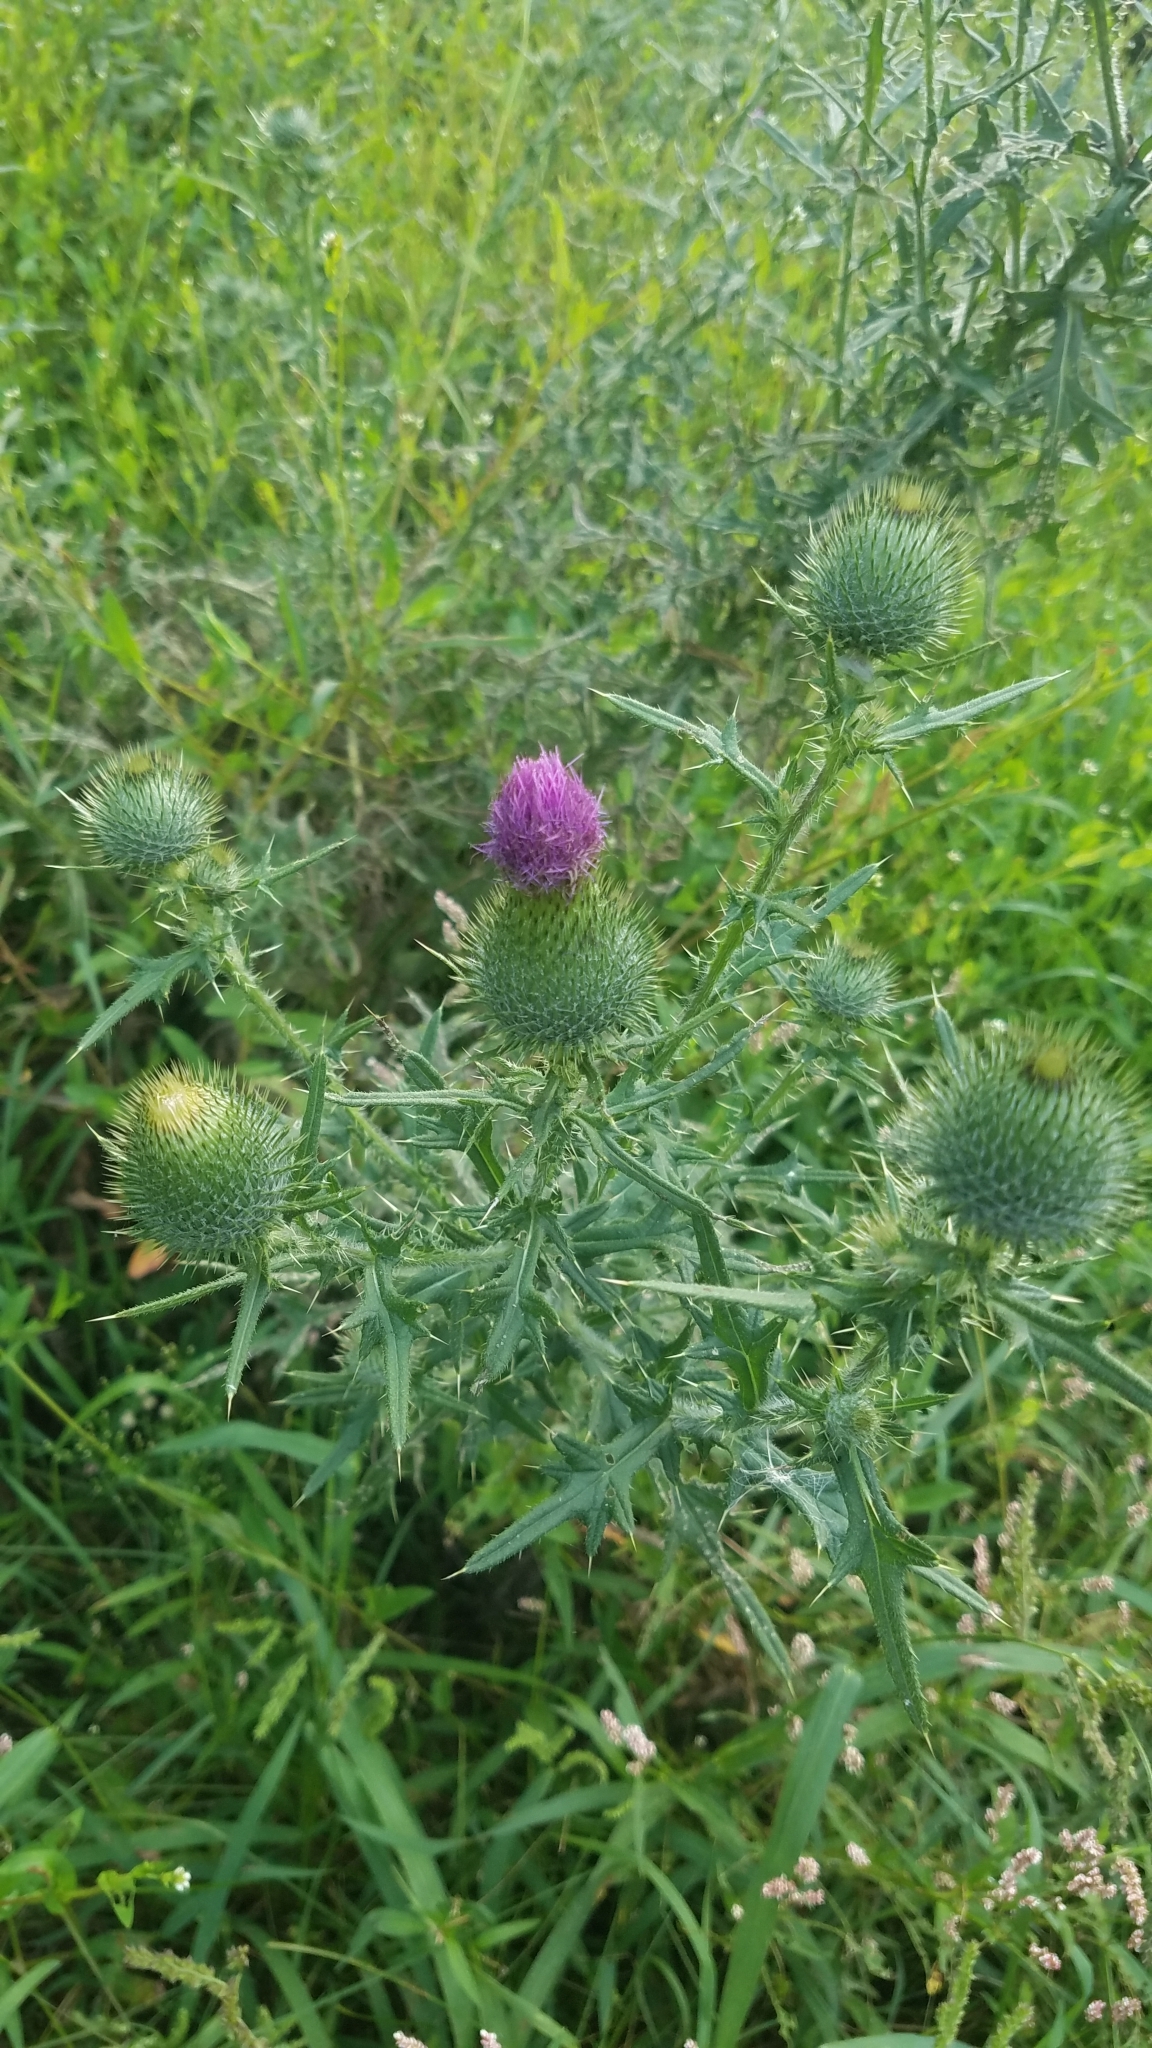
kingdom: Plantae
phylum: Tracheophyta
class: Magnoliopsida
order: Asterales
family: Asteraceae
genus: Cirsium
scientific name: Cirsium vulgare
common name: Bull thistle
